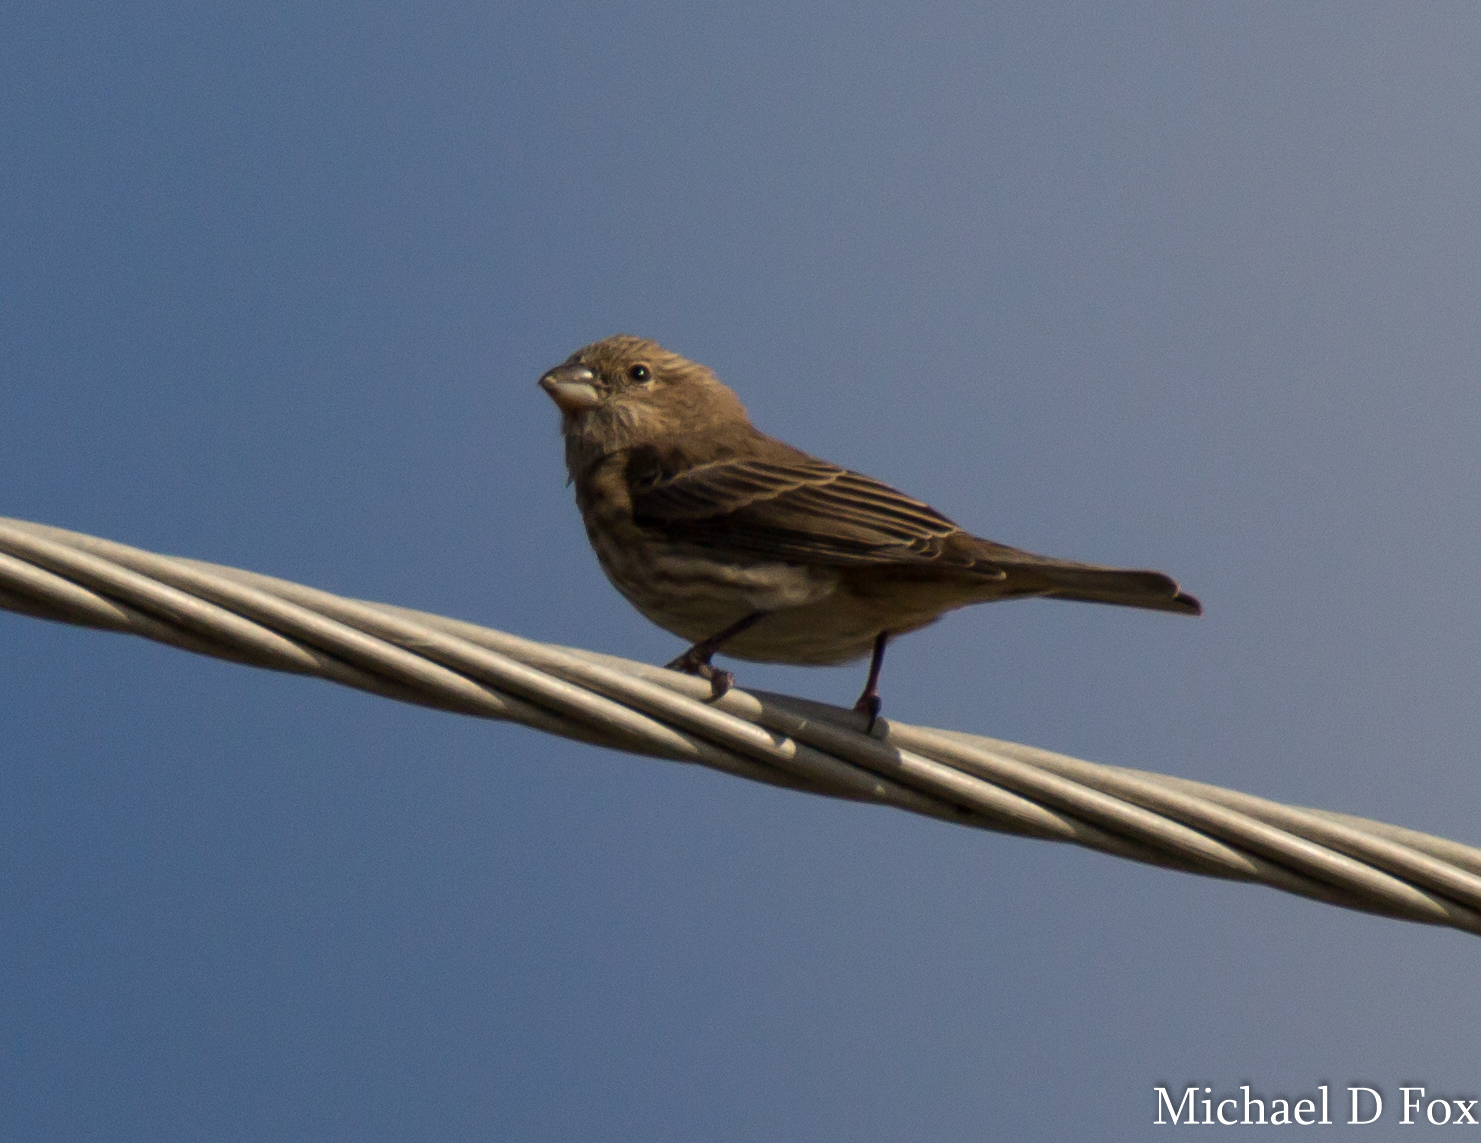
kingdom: Animalia
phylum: Chordata
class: Aves
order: Passeriformes
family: Fringillidae
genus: Haemorhous
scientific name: Haemorhous mexicanus
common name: House finch
